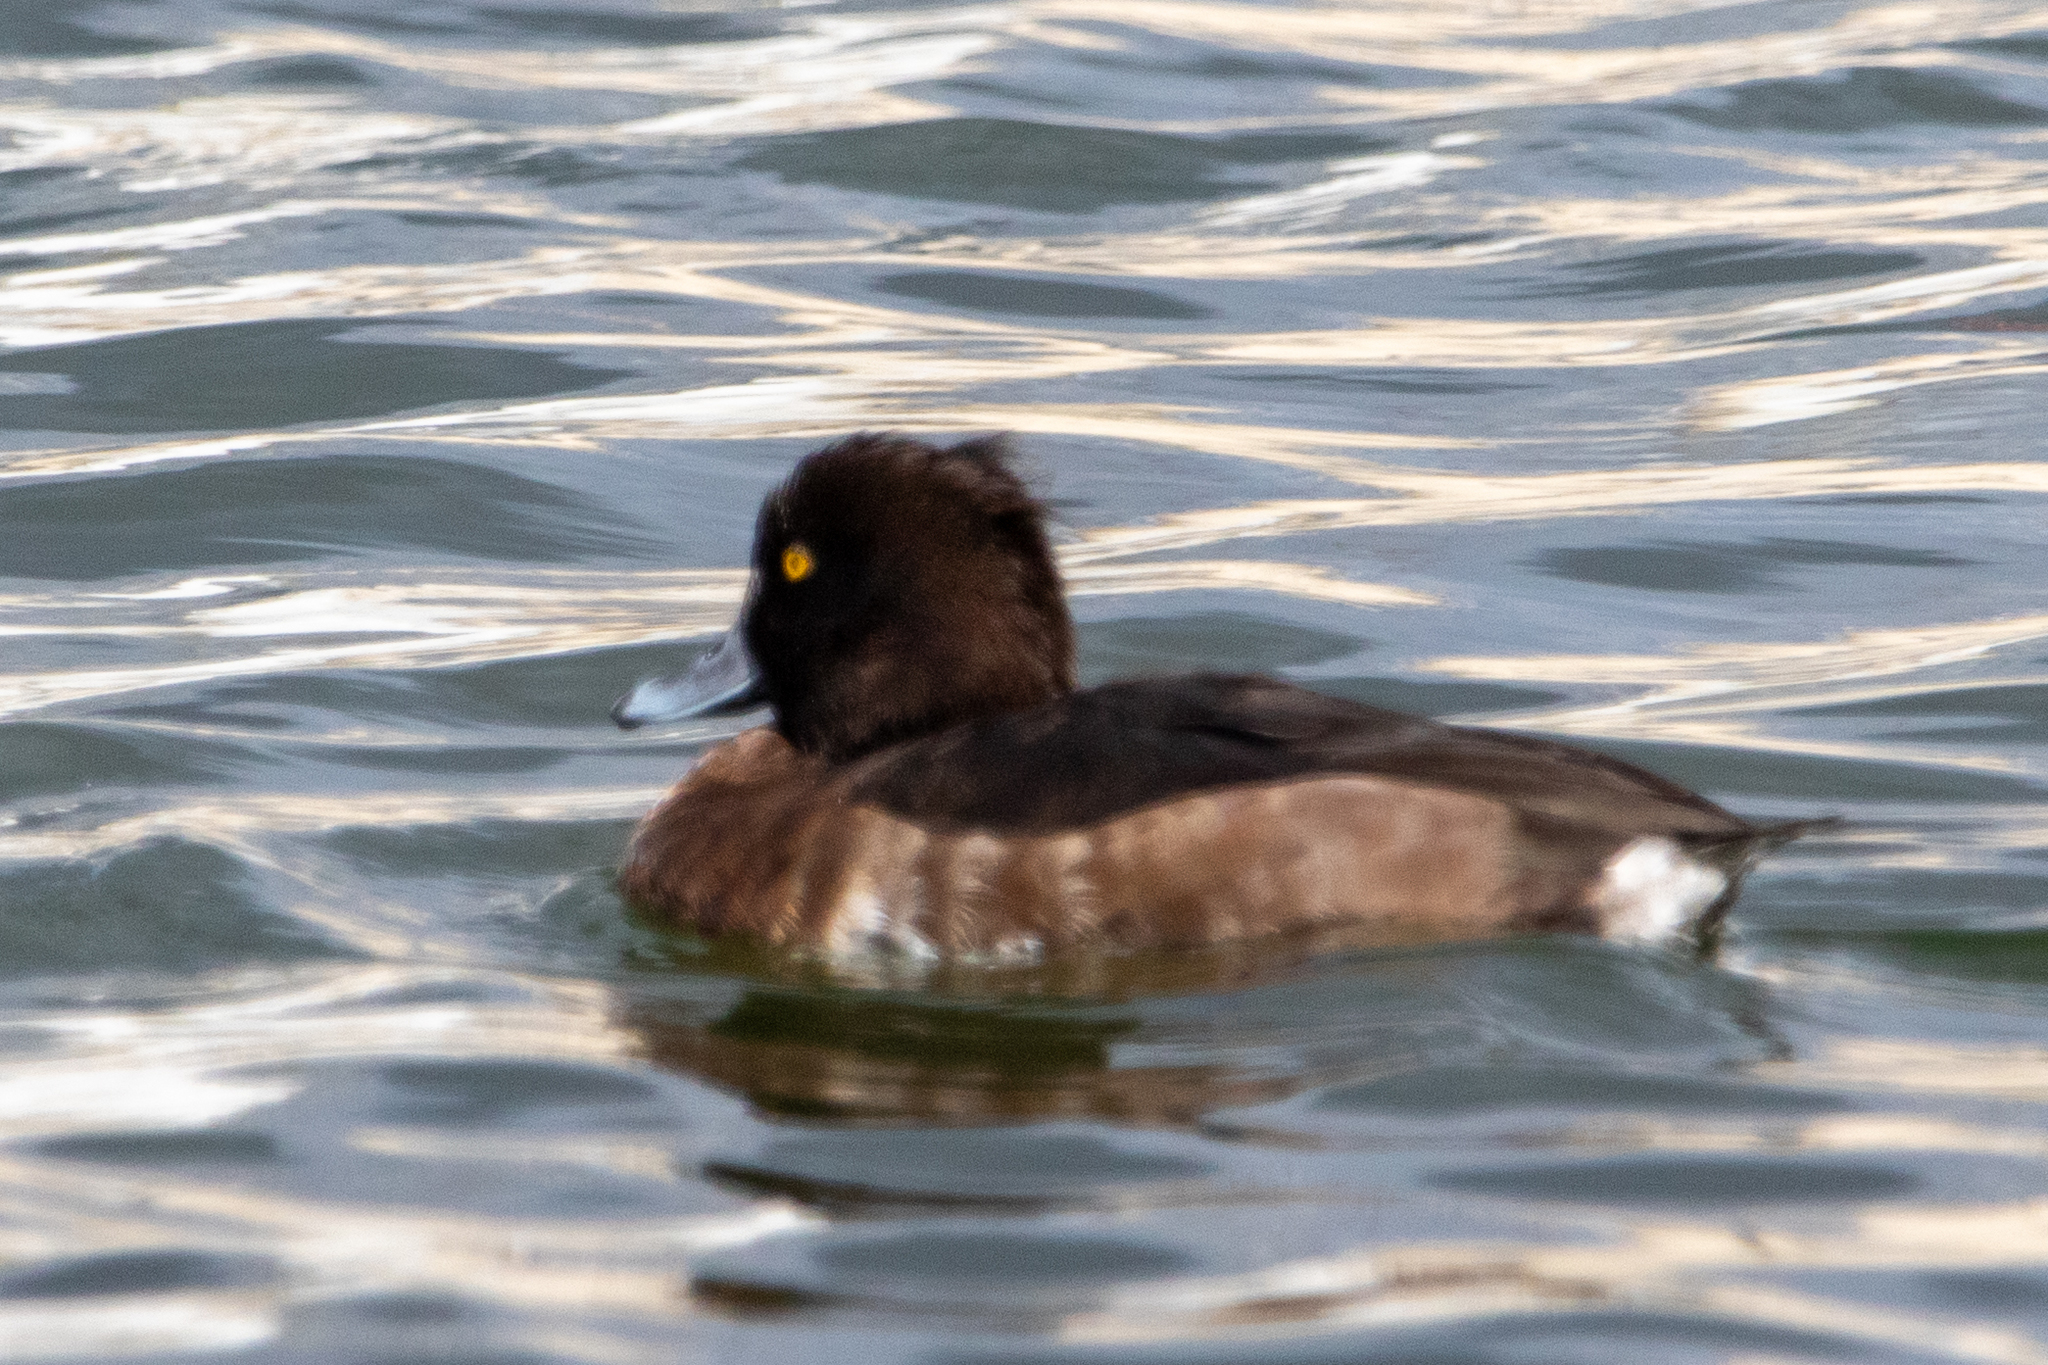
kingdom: Animalia
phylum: Chordata
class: Aves
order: Anseriformes
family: Anatidae
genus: Aythya
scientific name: Aythya fuligula
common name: Tufted duck
